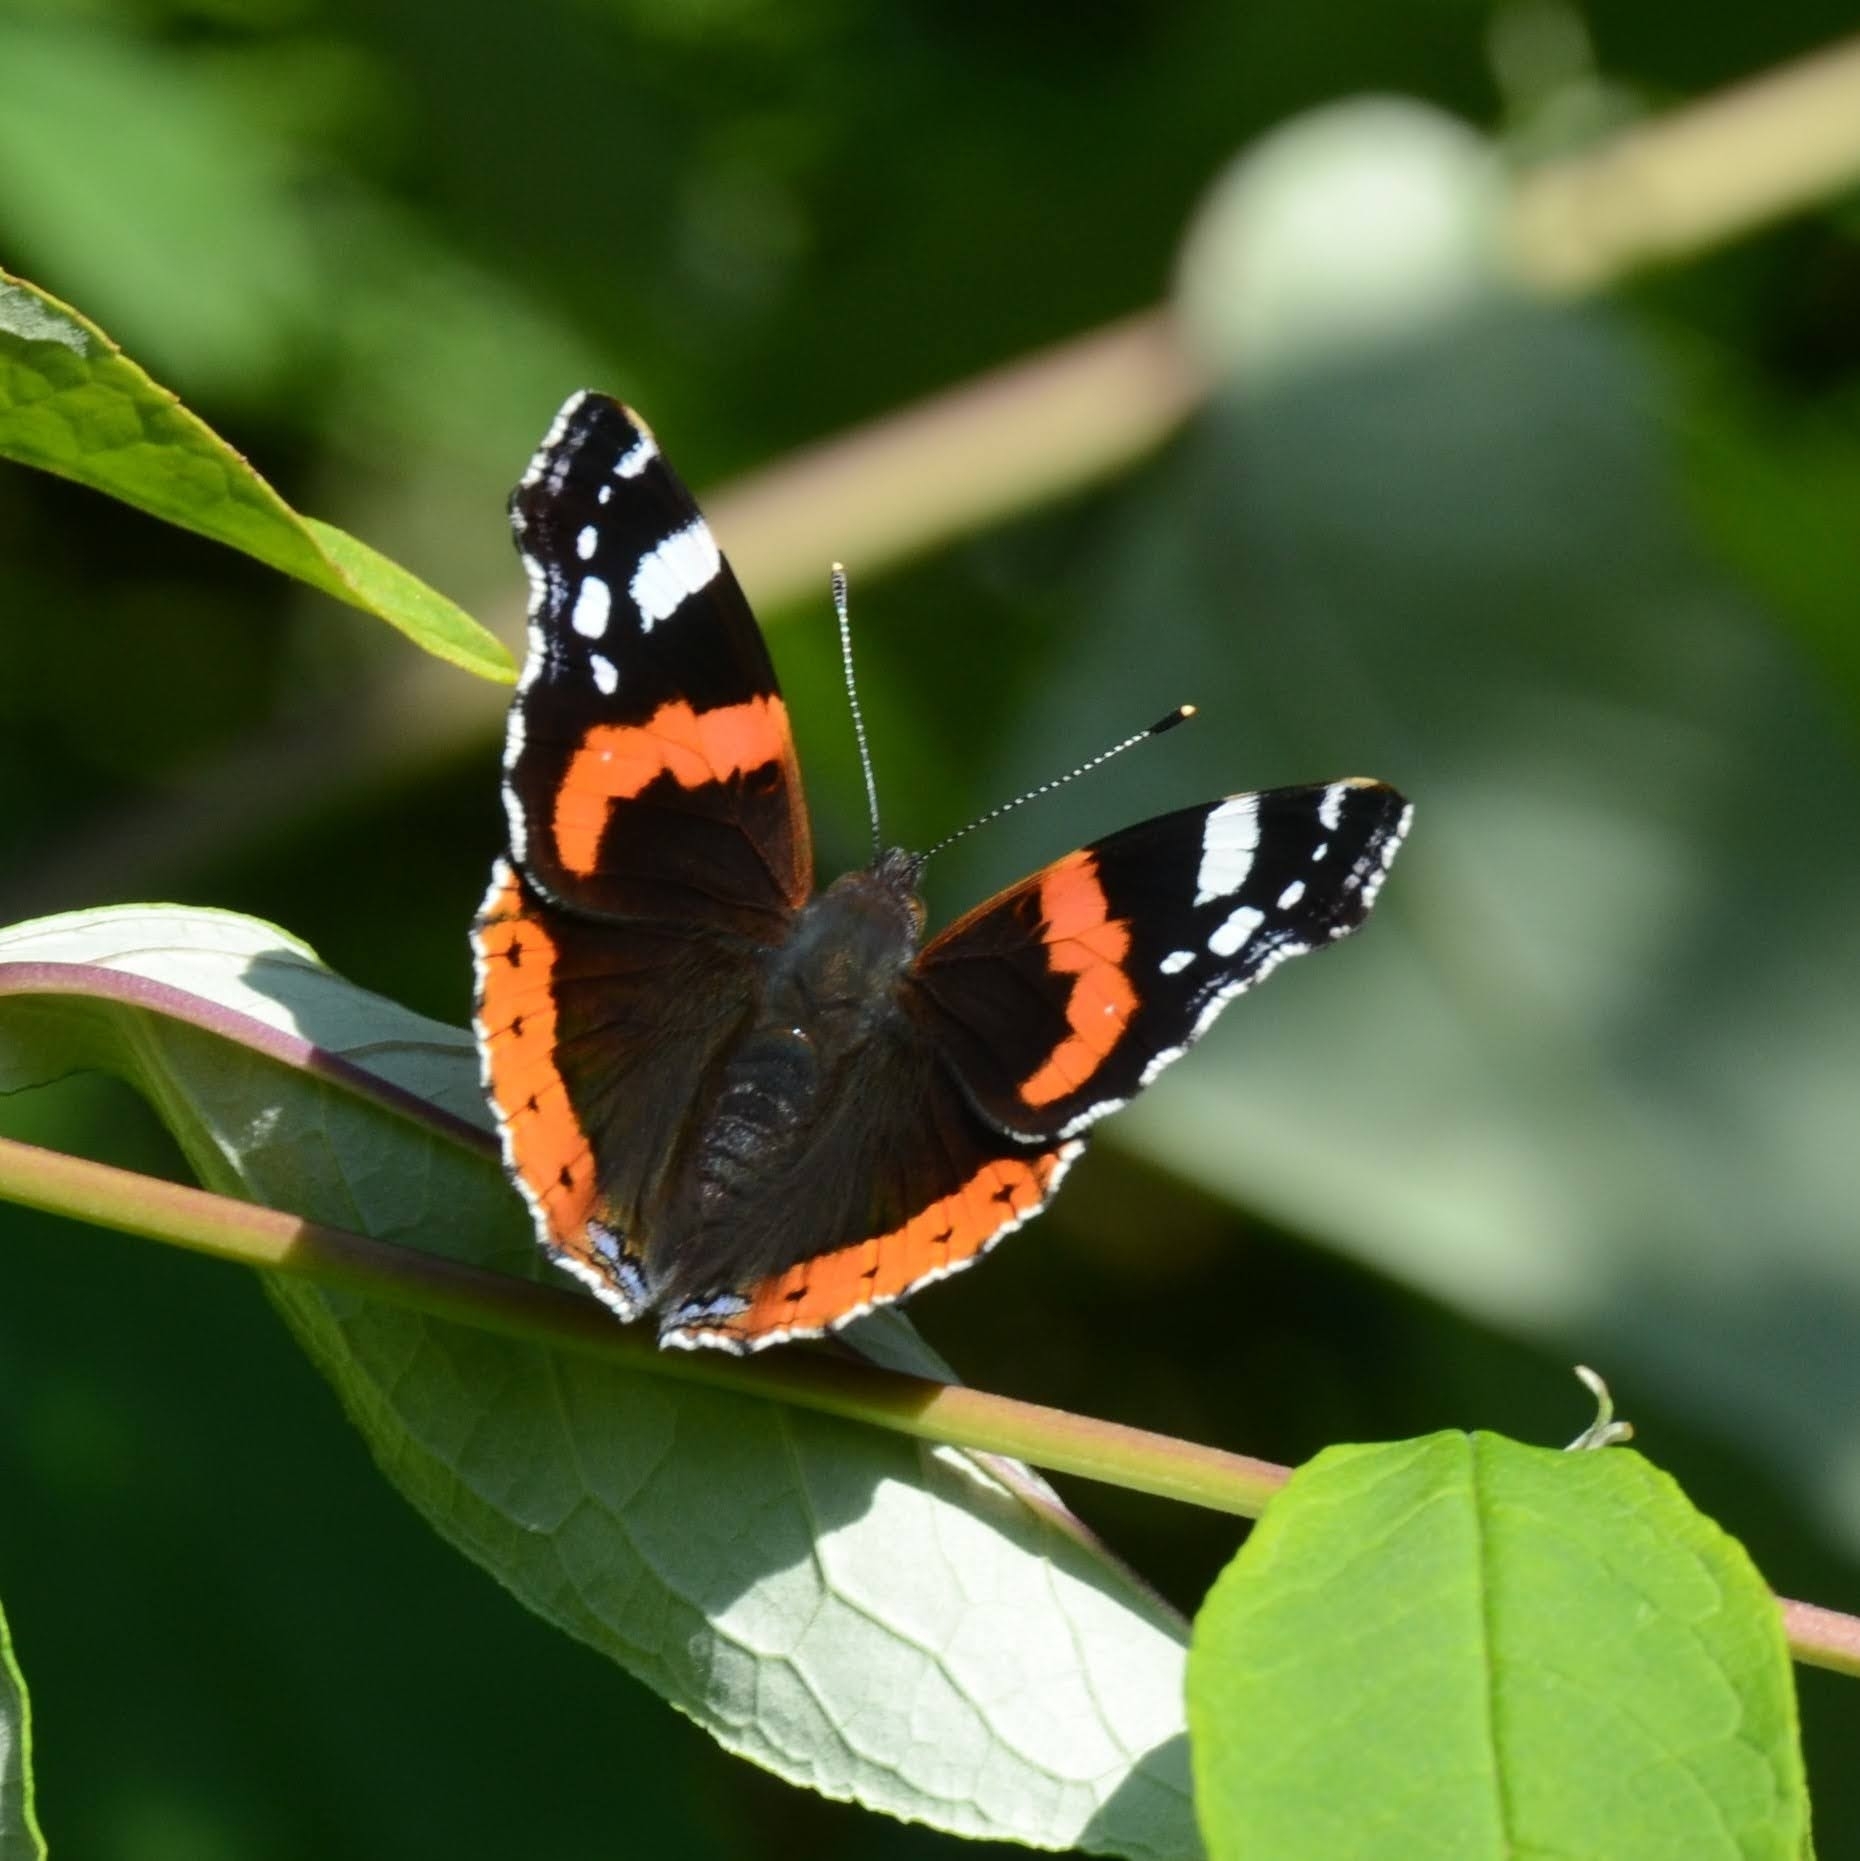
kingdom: Animalia
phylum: Arthropoda
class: Insecta
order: Lepidoptera
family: Nymphalidae
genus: Vanessa
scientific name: Vanessa atalanta
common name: Red admiral
